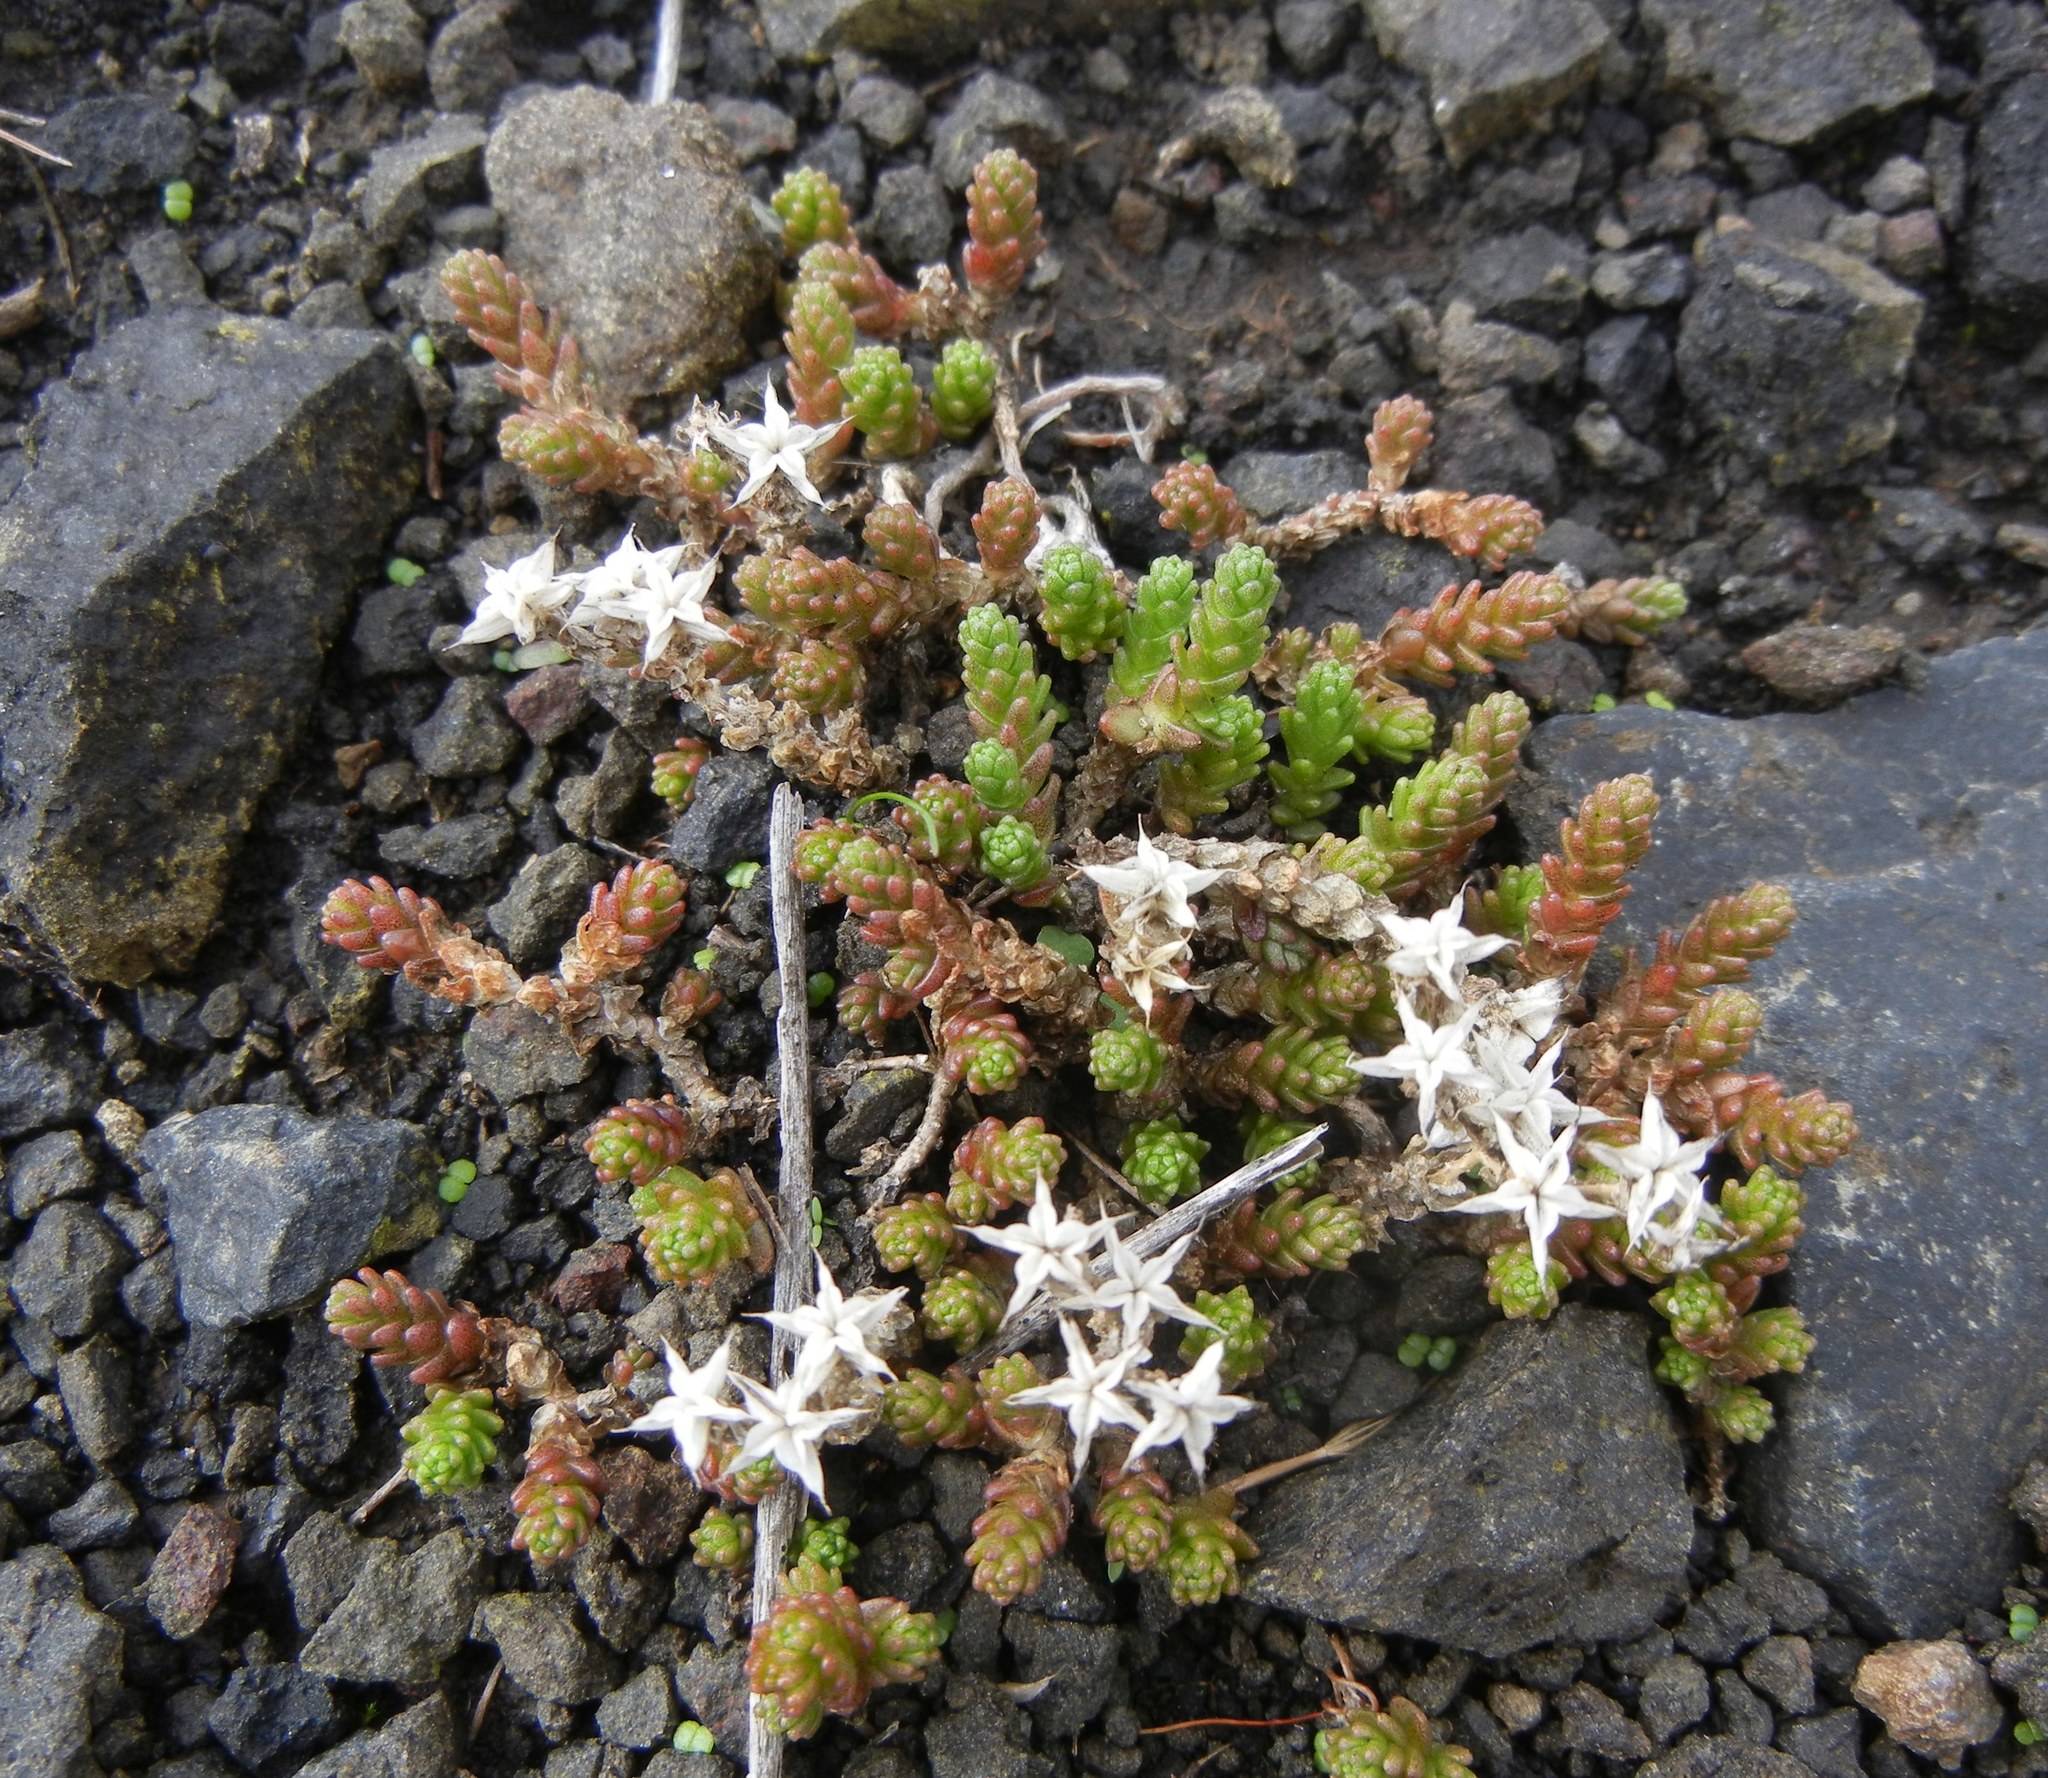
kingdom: Plantae
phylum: Tracheophyta
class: Magnoliopsida
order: Saxifragales
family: Crassulaceae
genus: Sedum
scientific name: Sedum acre
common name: Biting stonecrop
